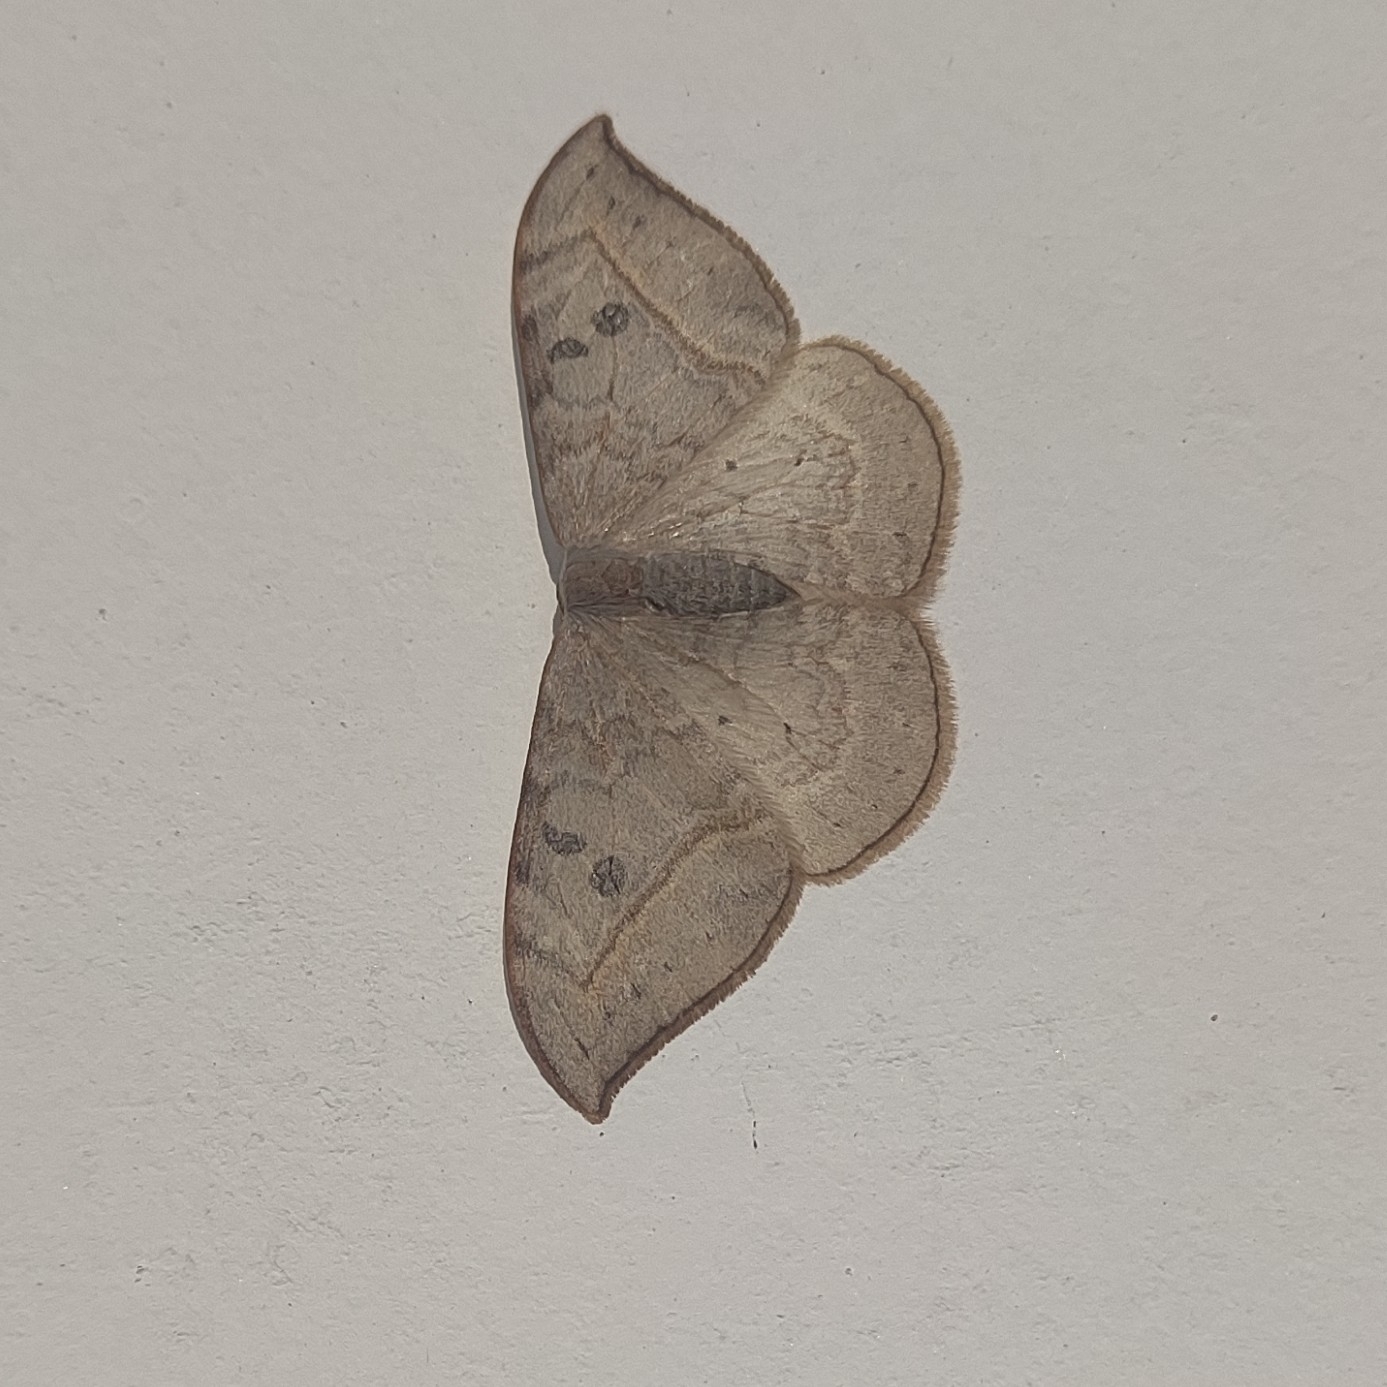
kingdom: Animalia
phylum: Arthropoda
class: Insecta
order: Lepidoptera
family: Drepanidae
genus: Drepana
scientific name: Drepana pallida
